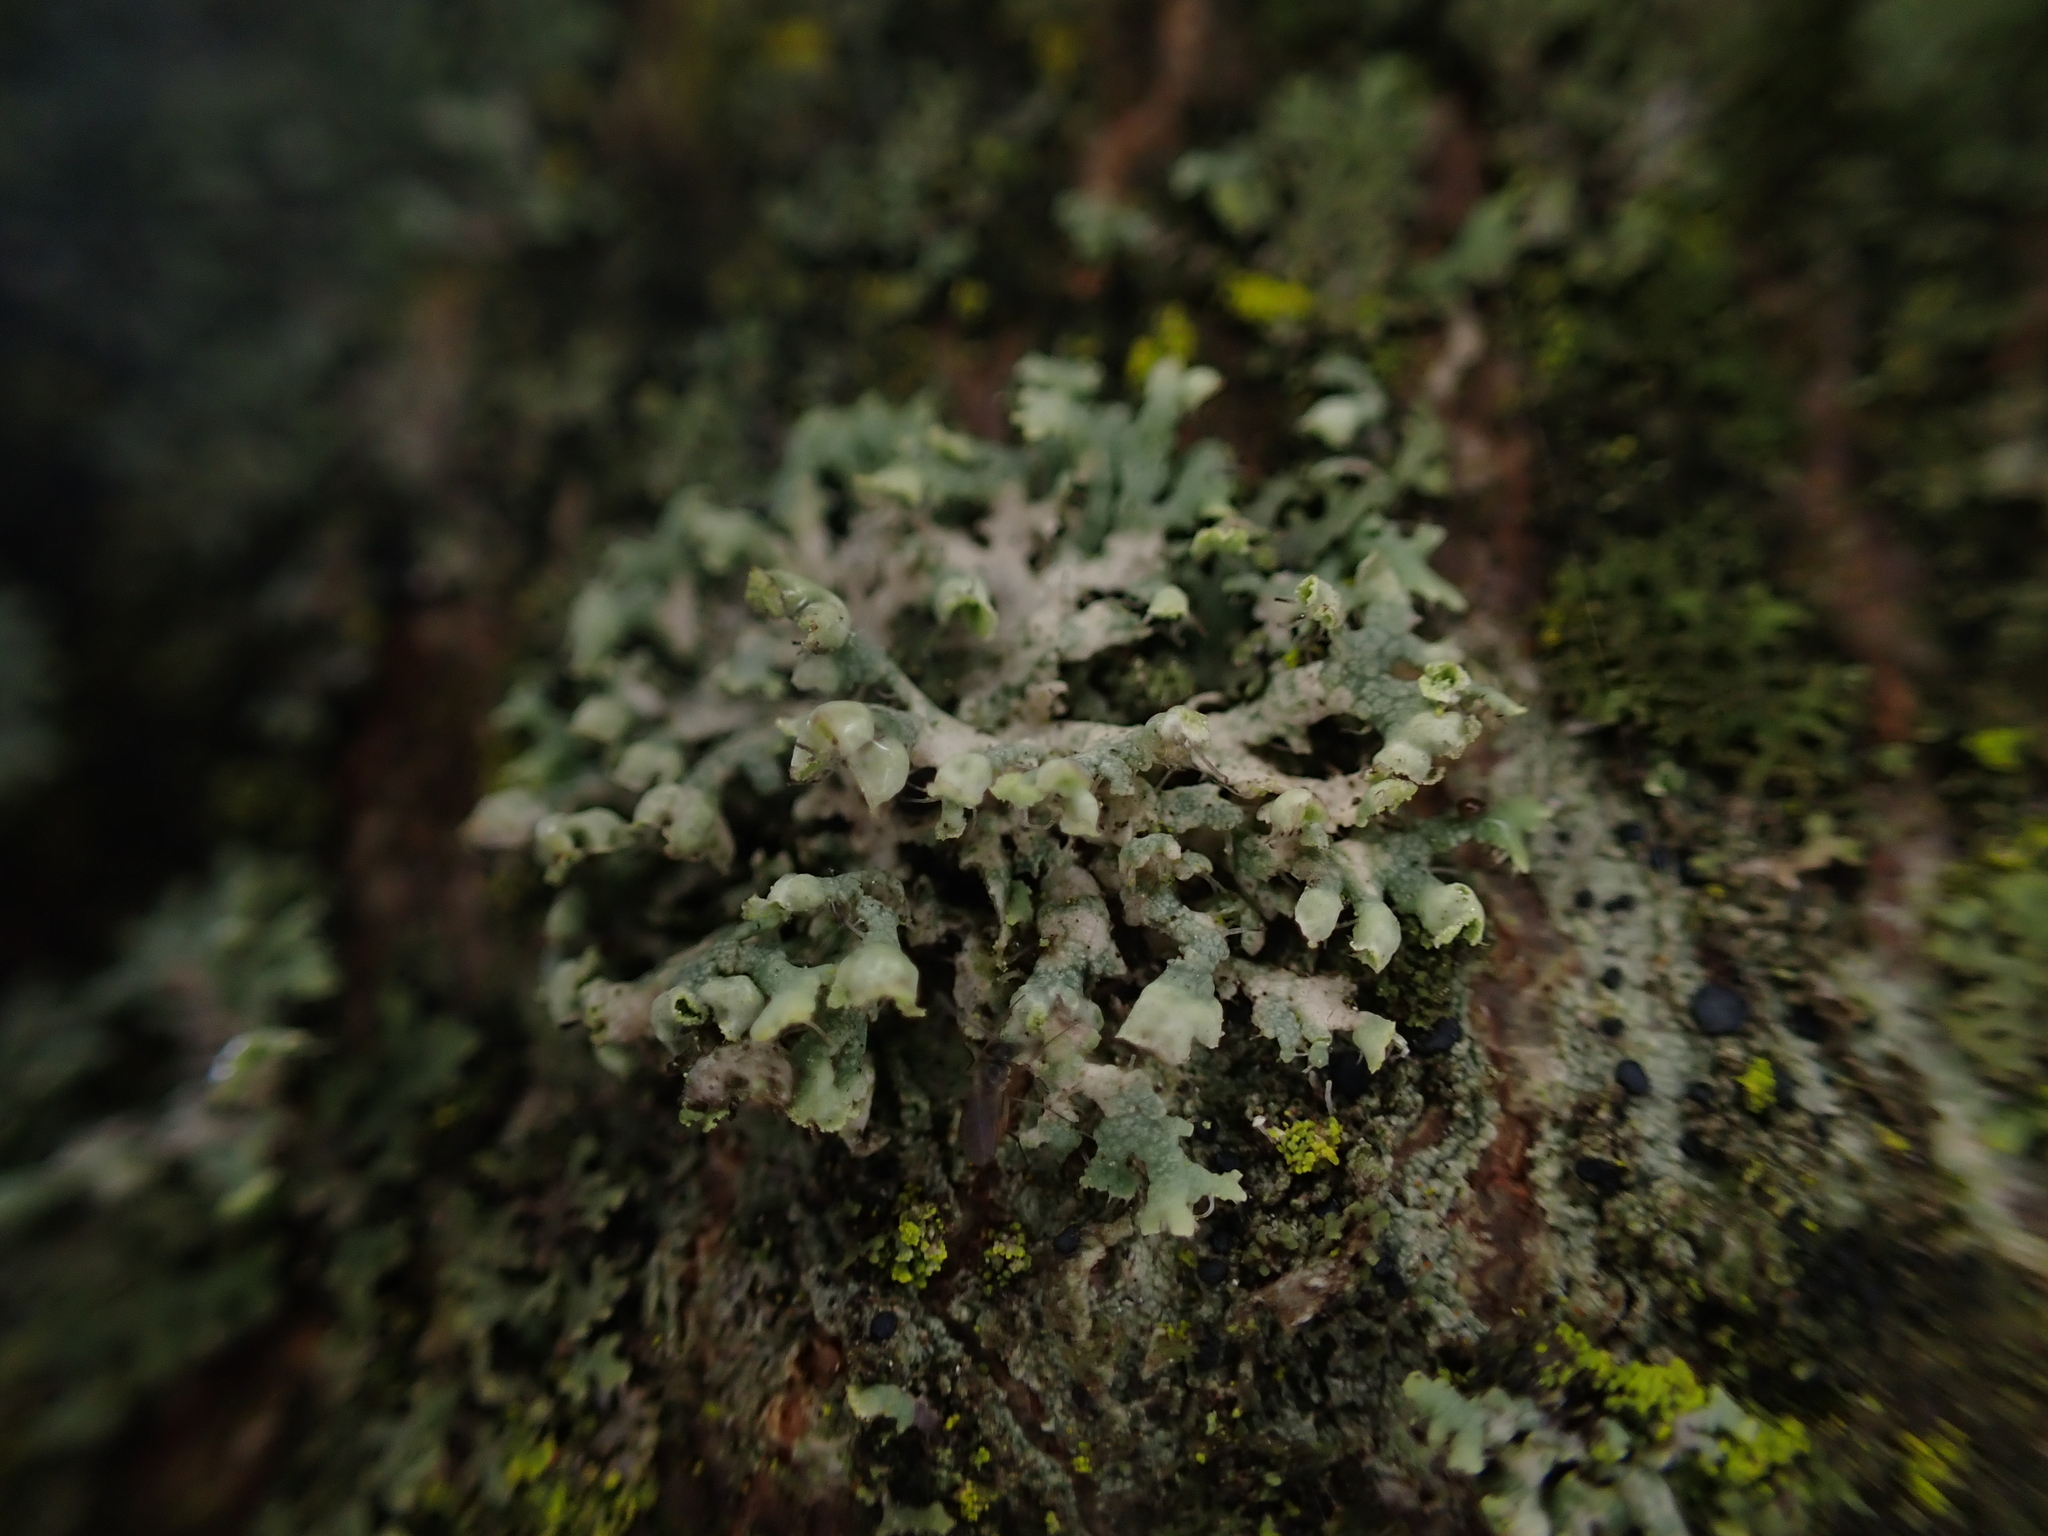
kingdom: Fungi
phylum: Ascomycota
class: Lecanoromycetes
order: Caliciales
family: Physciaceae
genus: Physcia
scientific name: Physcia adscendens
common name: Hooded rosette lichen
